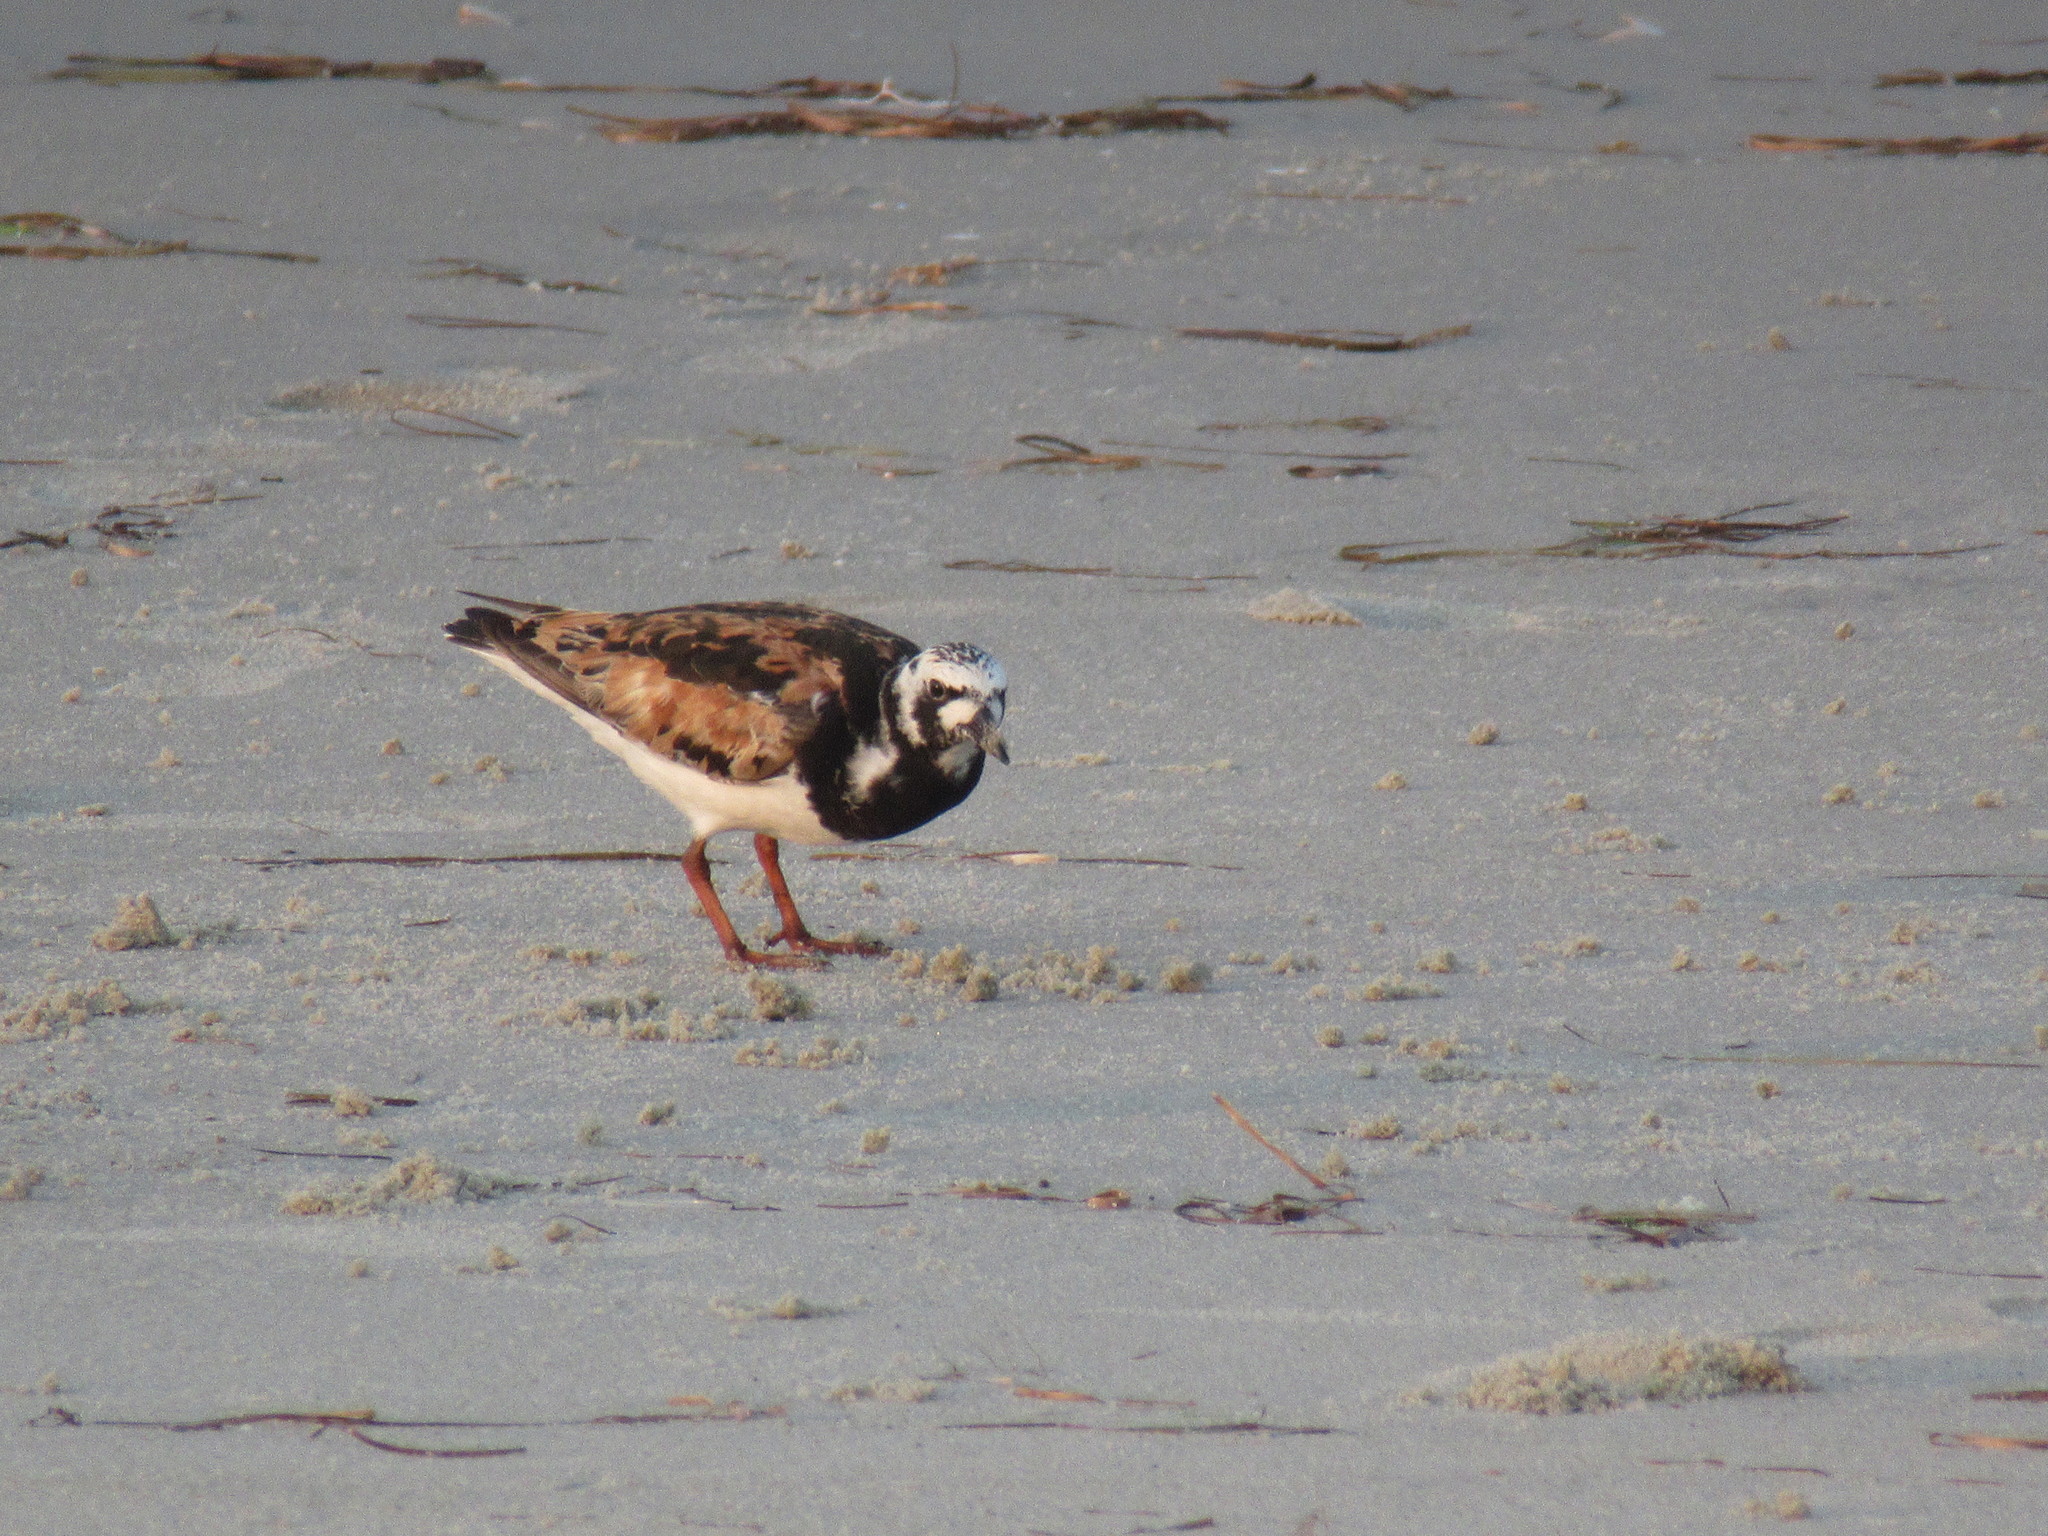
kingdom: Animalia
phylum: Chordata
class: Aves
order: Charadriiformes
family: Scolopacidae
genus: Arenaria
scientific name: Arenaria interpres
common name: Ruddy turnstone
